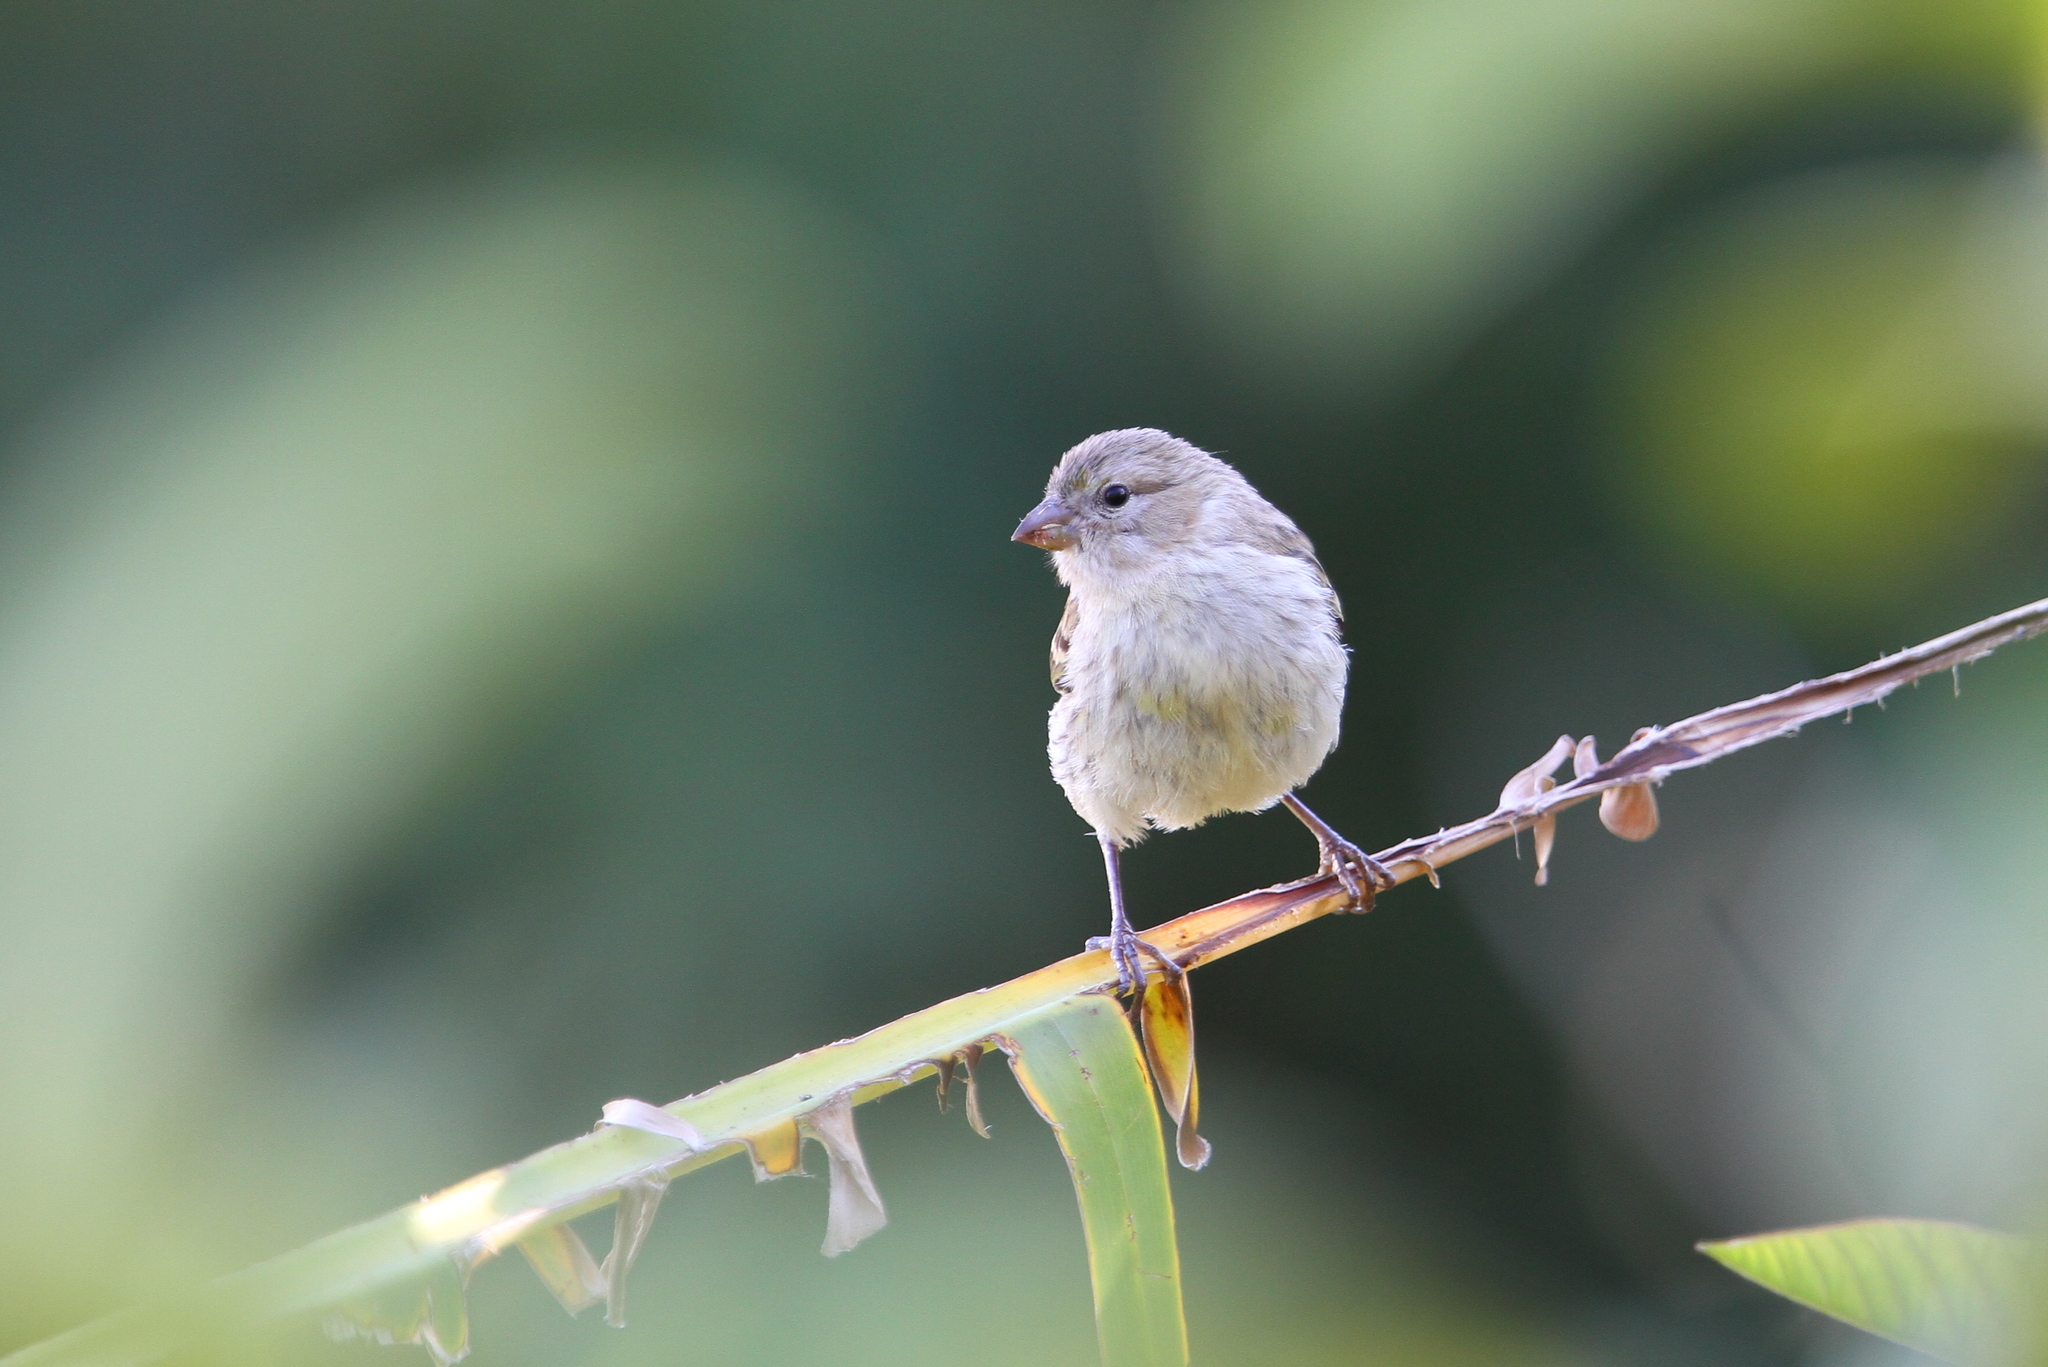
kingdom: Animalia
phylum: Chordata
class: Aves
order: Passeriformes
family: Fringillidae
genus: Serinus
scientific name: Serinus canaria
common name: Atlantic canary
